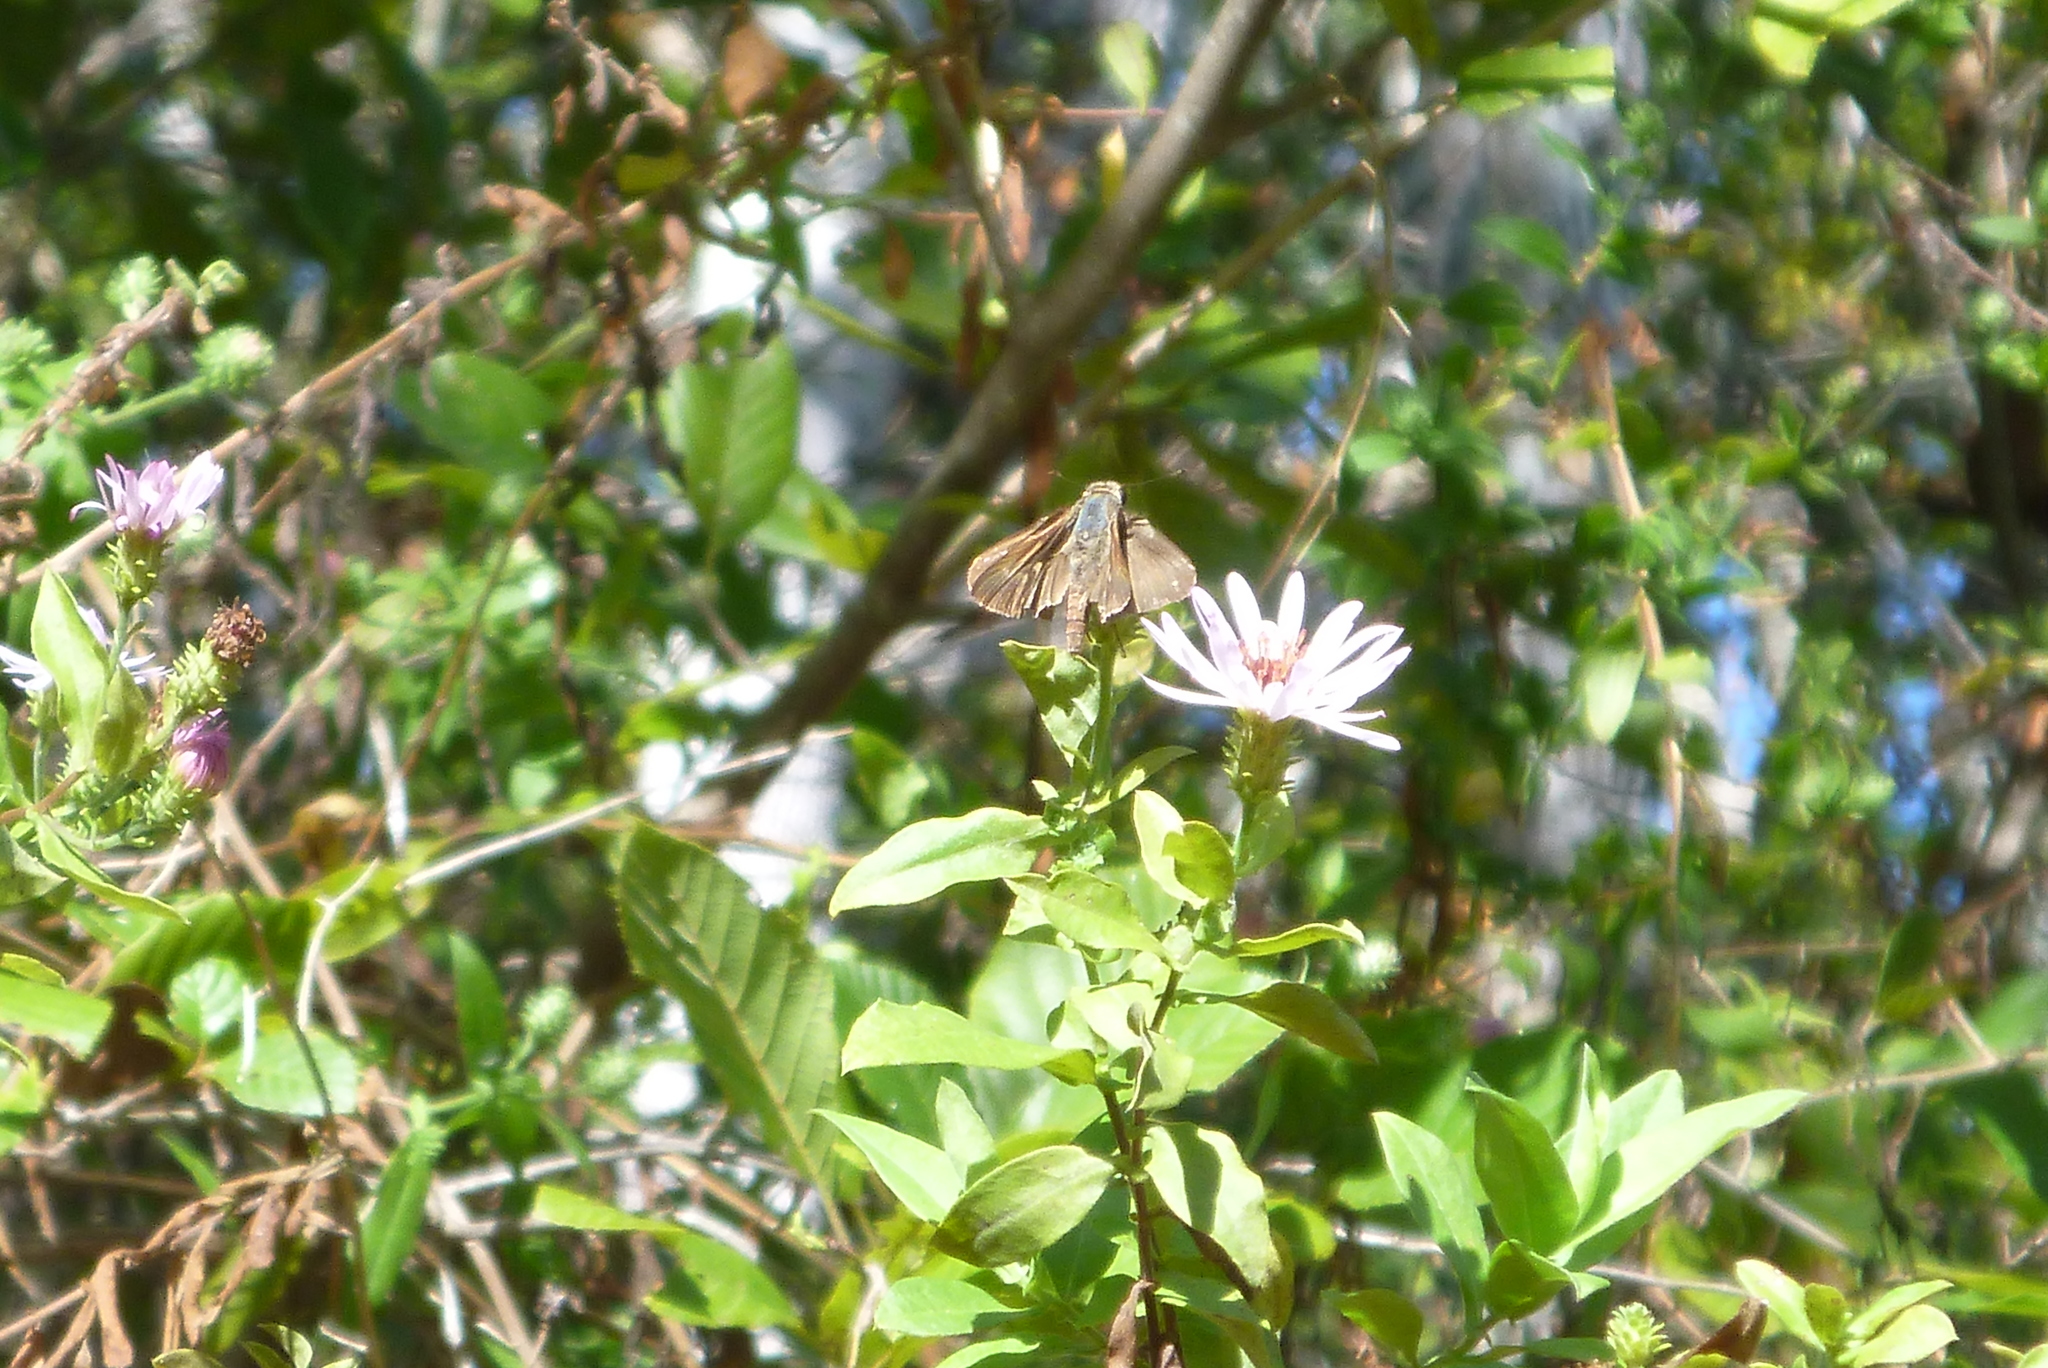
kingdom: Animalia
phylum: Arthropoda
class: Insecta
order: Lepidoptera
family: Hesperiidae
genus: Panoquina
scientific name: Panoquina ocola
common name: Ocola skipper
